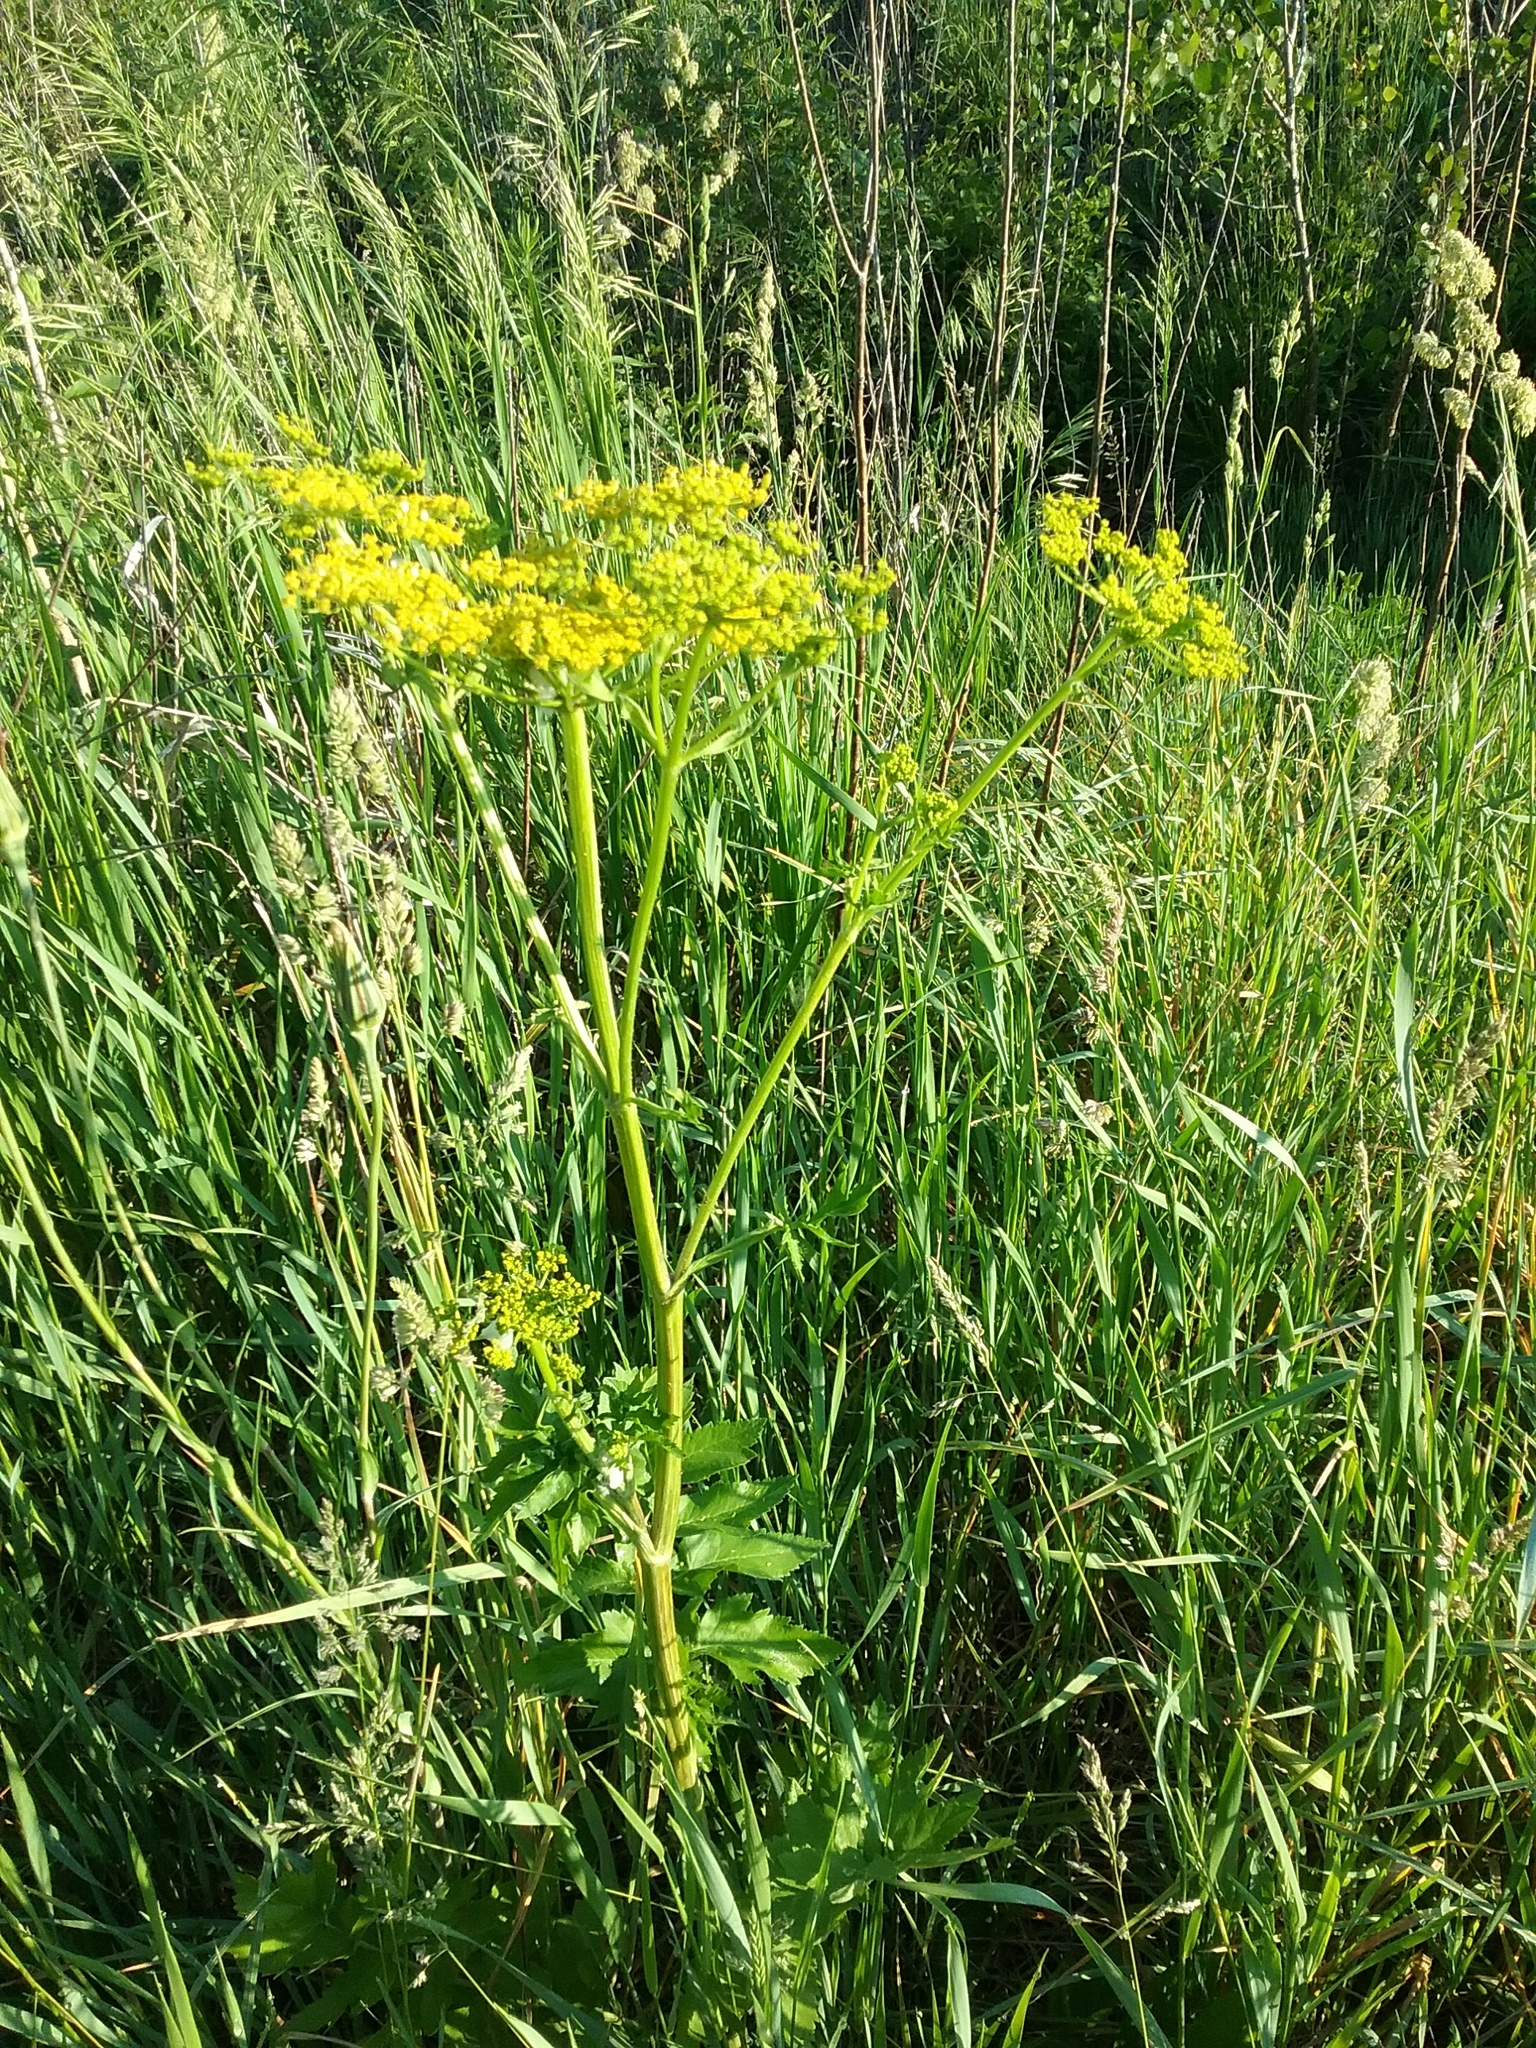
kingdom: Plantae
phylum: Tracheophyta
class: Magnoliopsida
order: Apiales
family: Apiaceae
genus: Pastinaca
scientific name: Pastinaca sativa
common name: Wild parsnip
